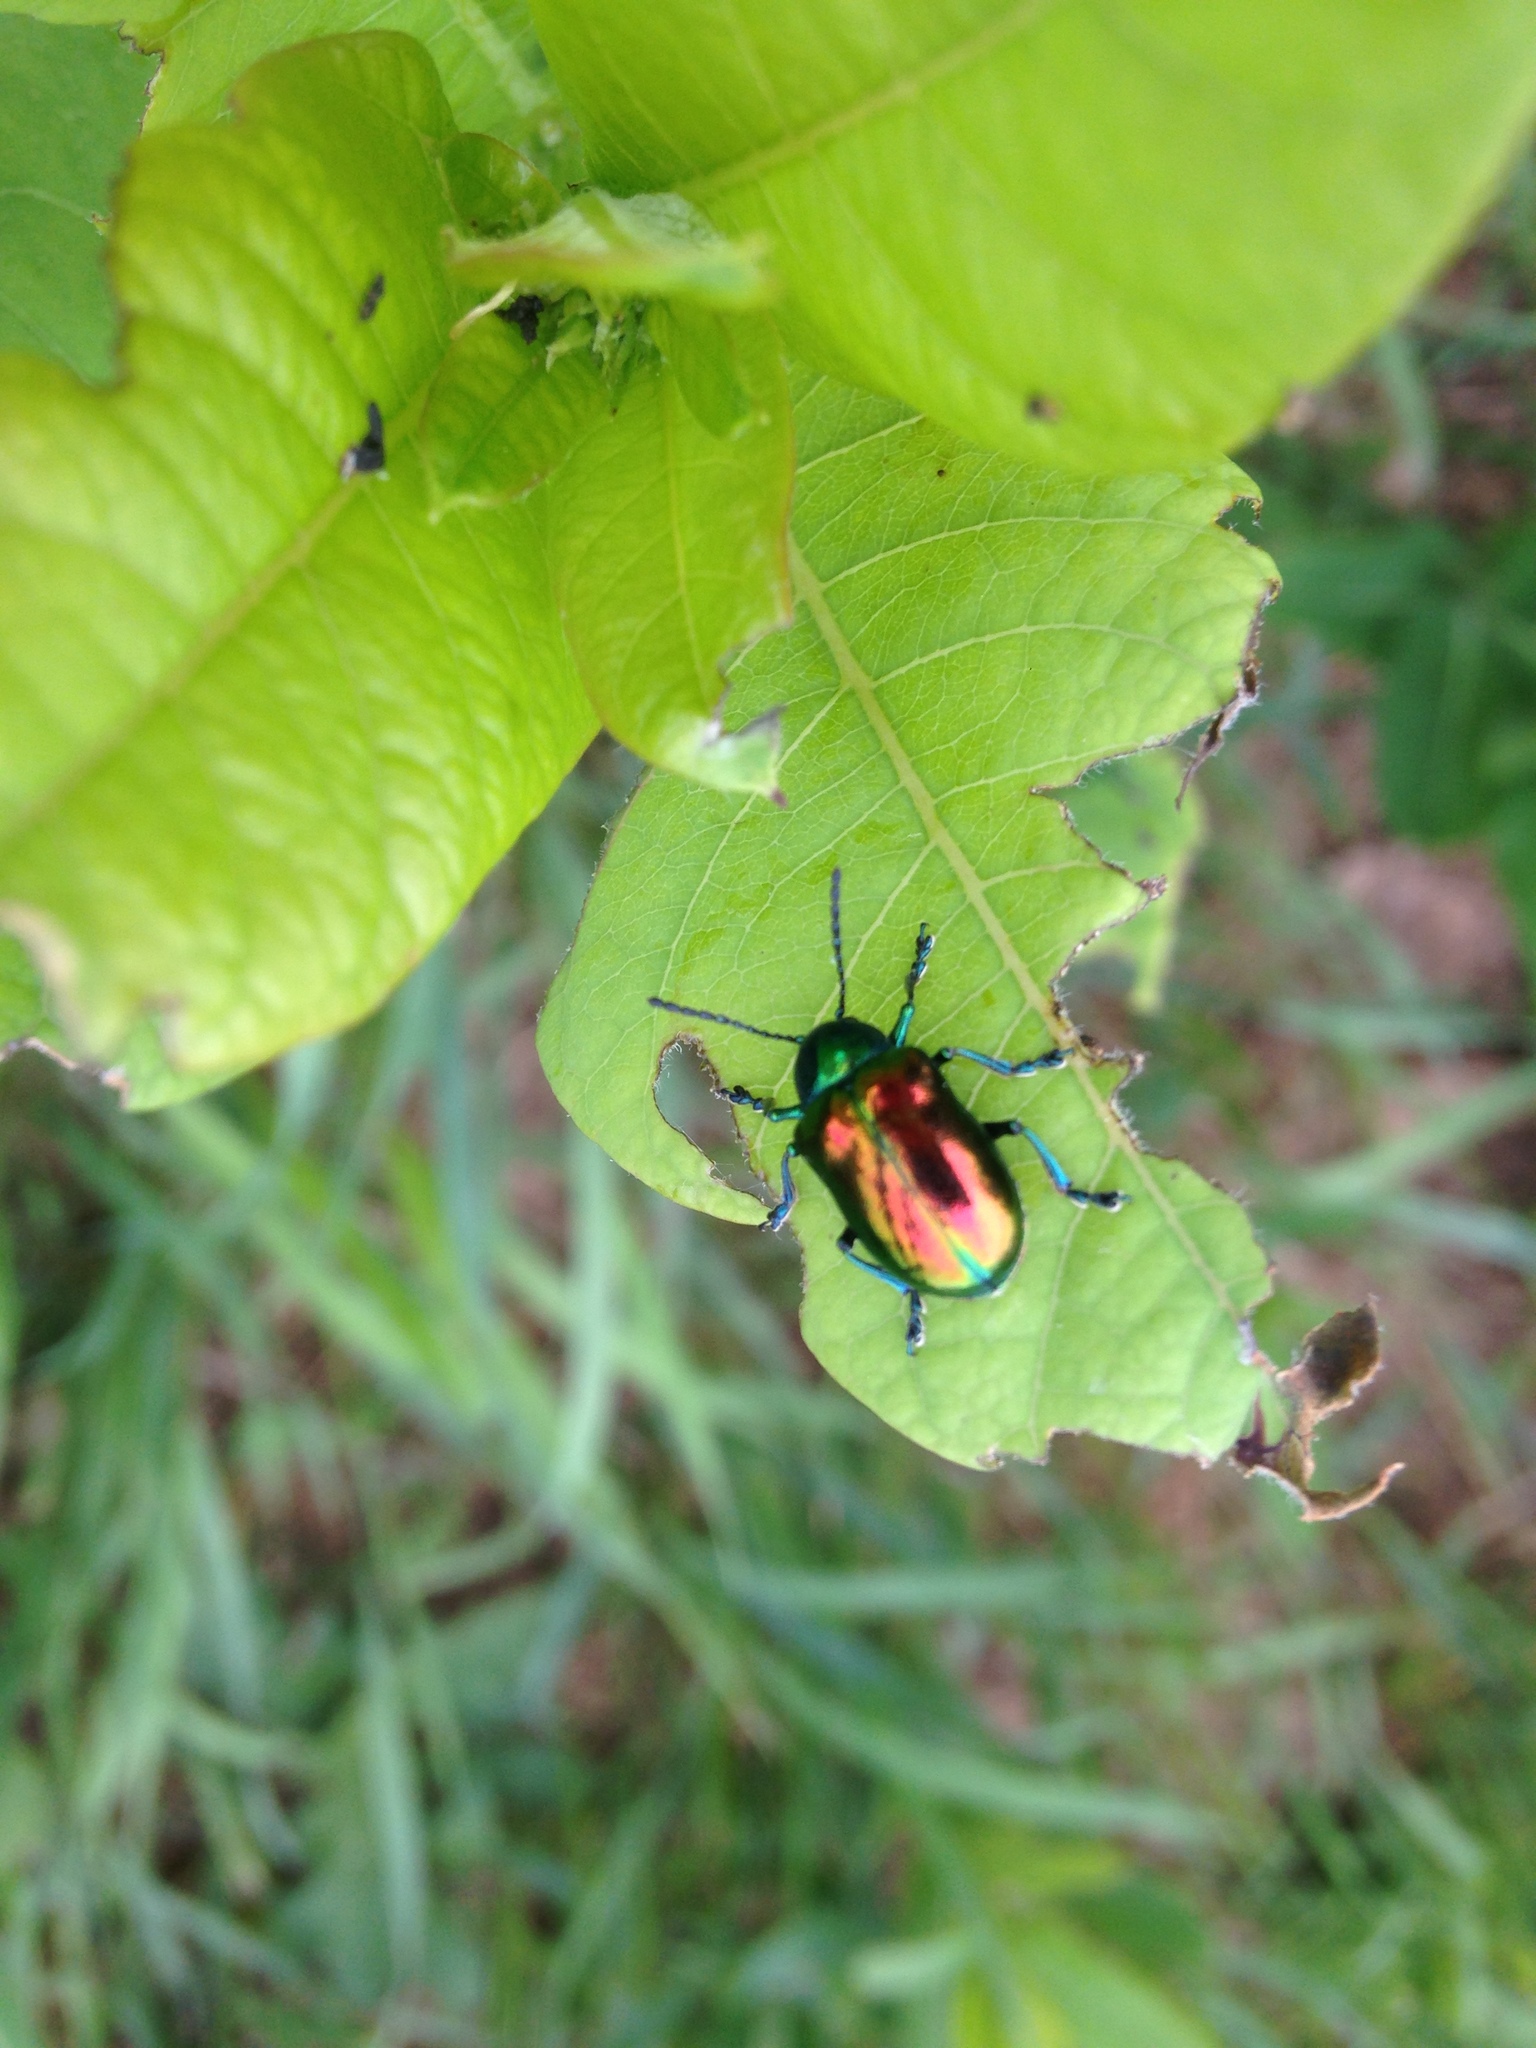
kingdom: Animalia
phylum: Arthropoda
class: Insecta
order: Coleoptera
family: Chrysomelidae
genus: Chrysochus
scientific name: Chrysochus auratus
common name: Dogbane leaf beetle
